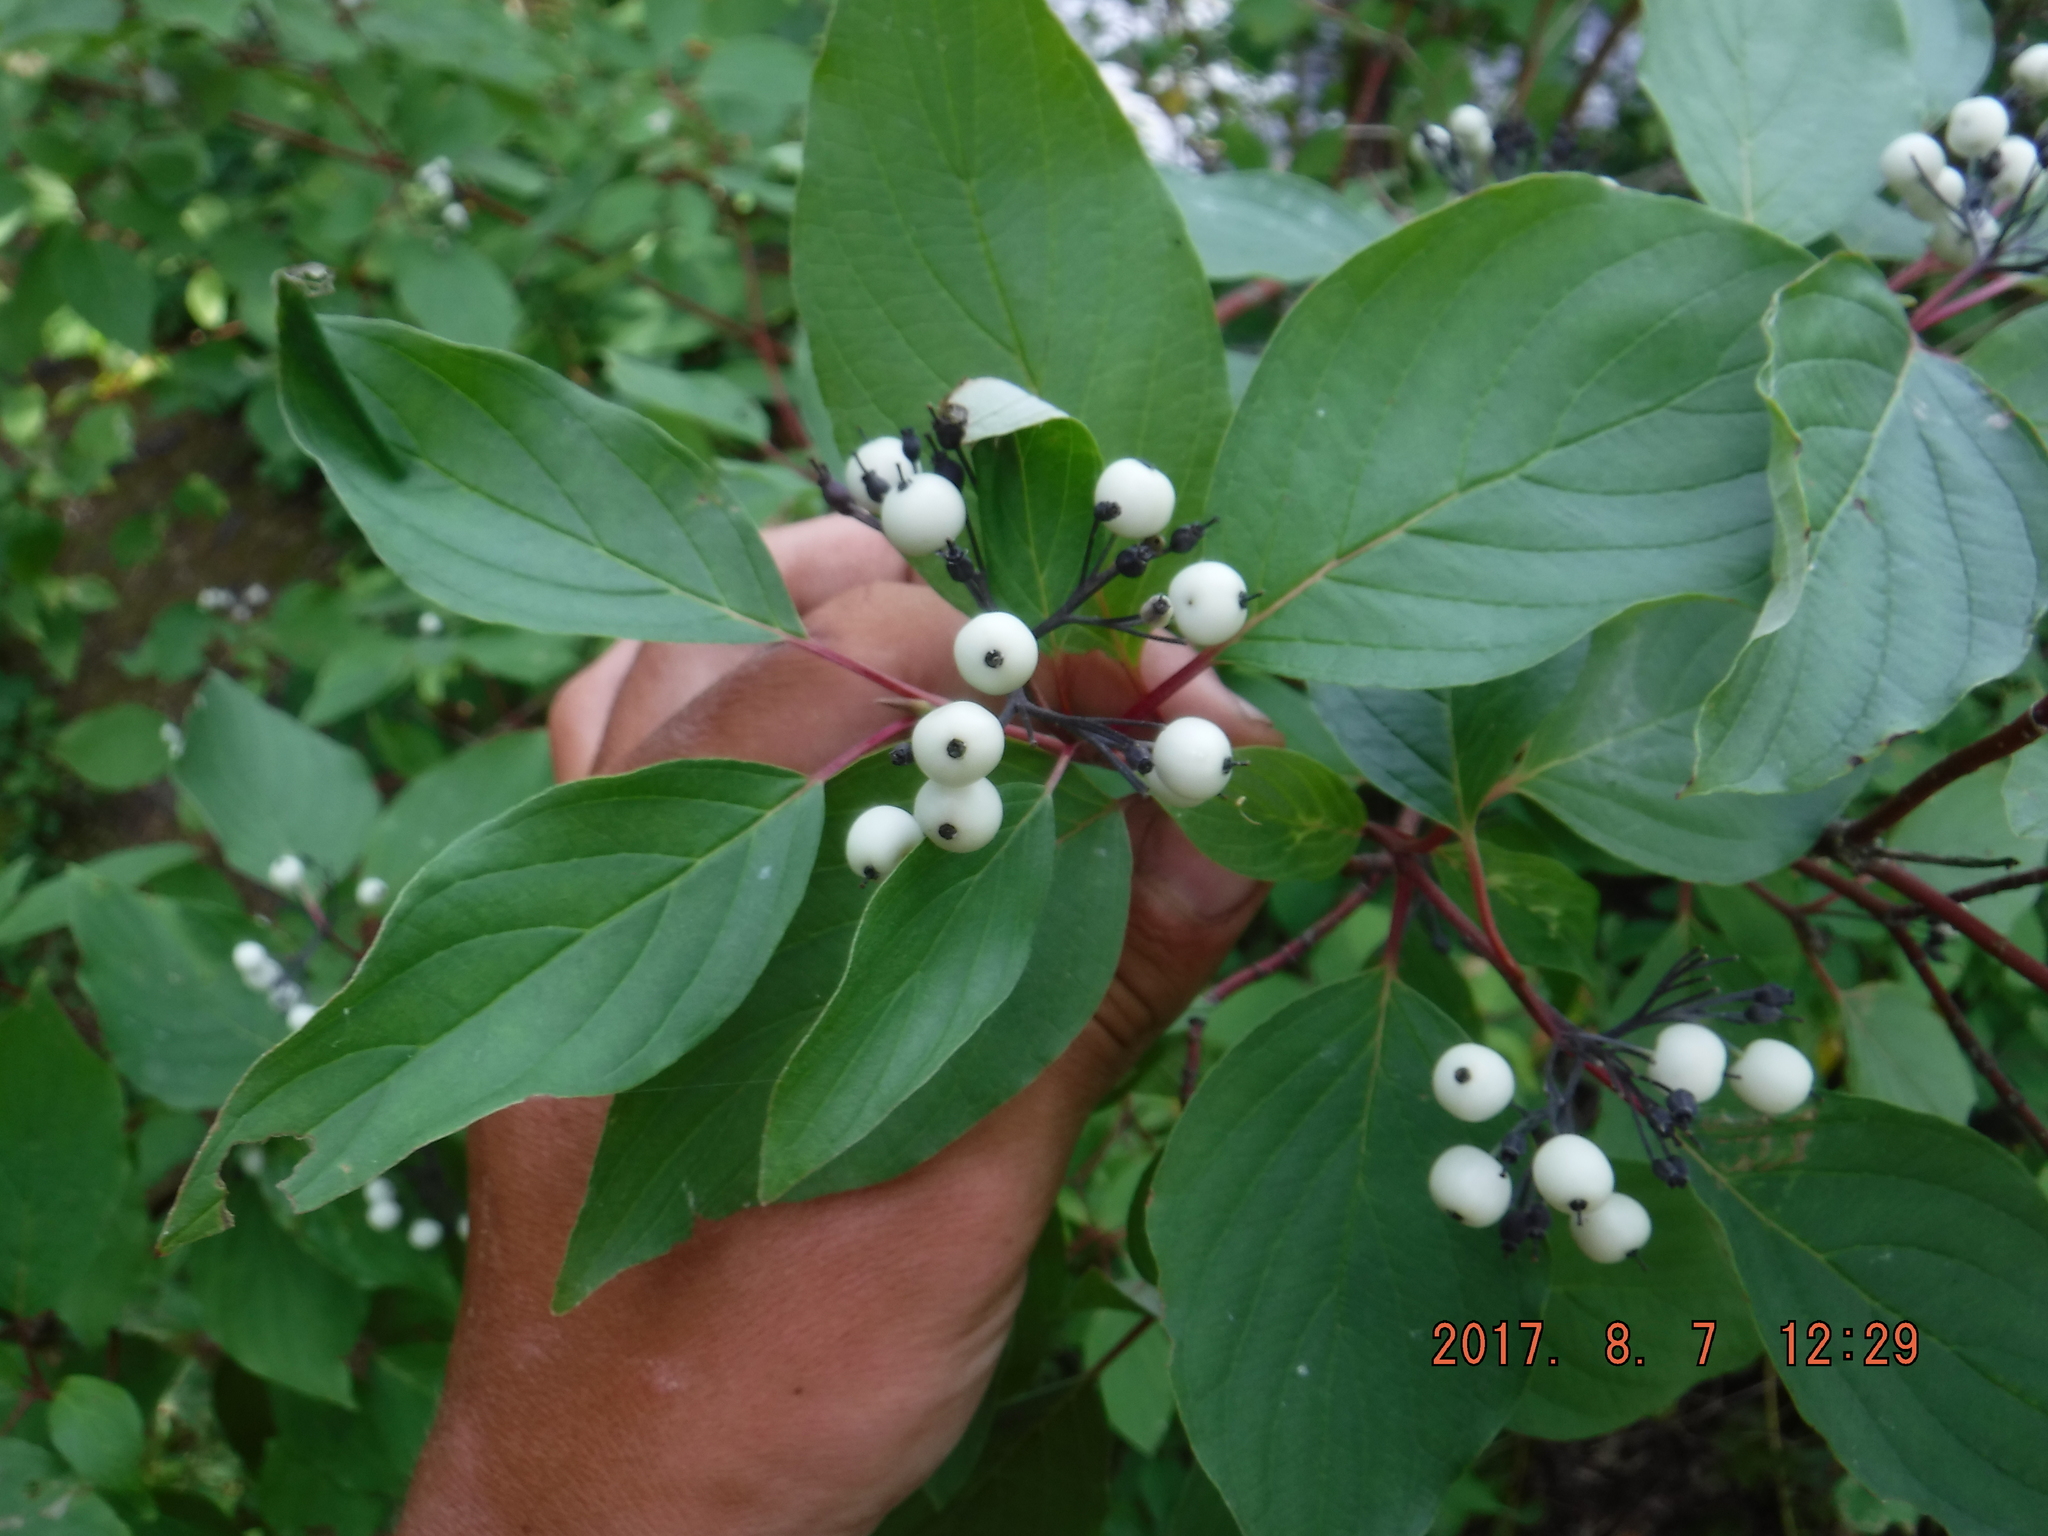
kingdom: Plantae
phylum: Tracheophyta
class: Magnoliopsida
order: Cornales
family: Cornaceae
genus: Cornus
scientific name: Cornus sericea
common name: Red-osier dogwood
